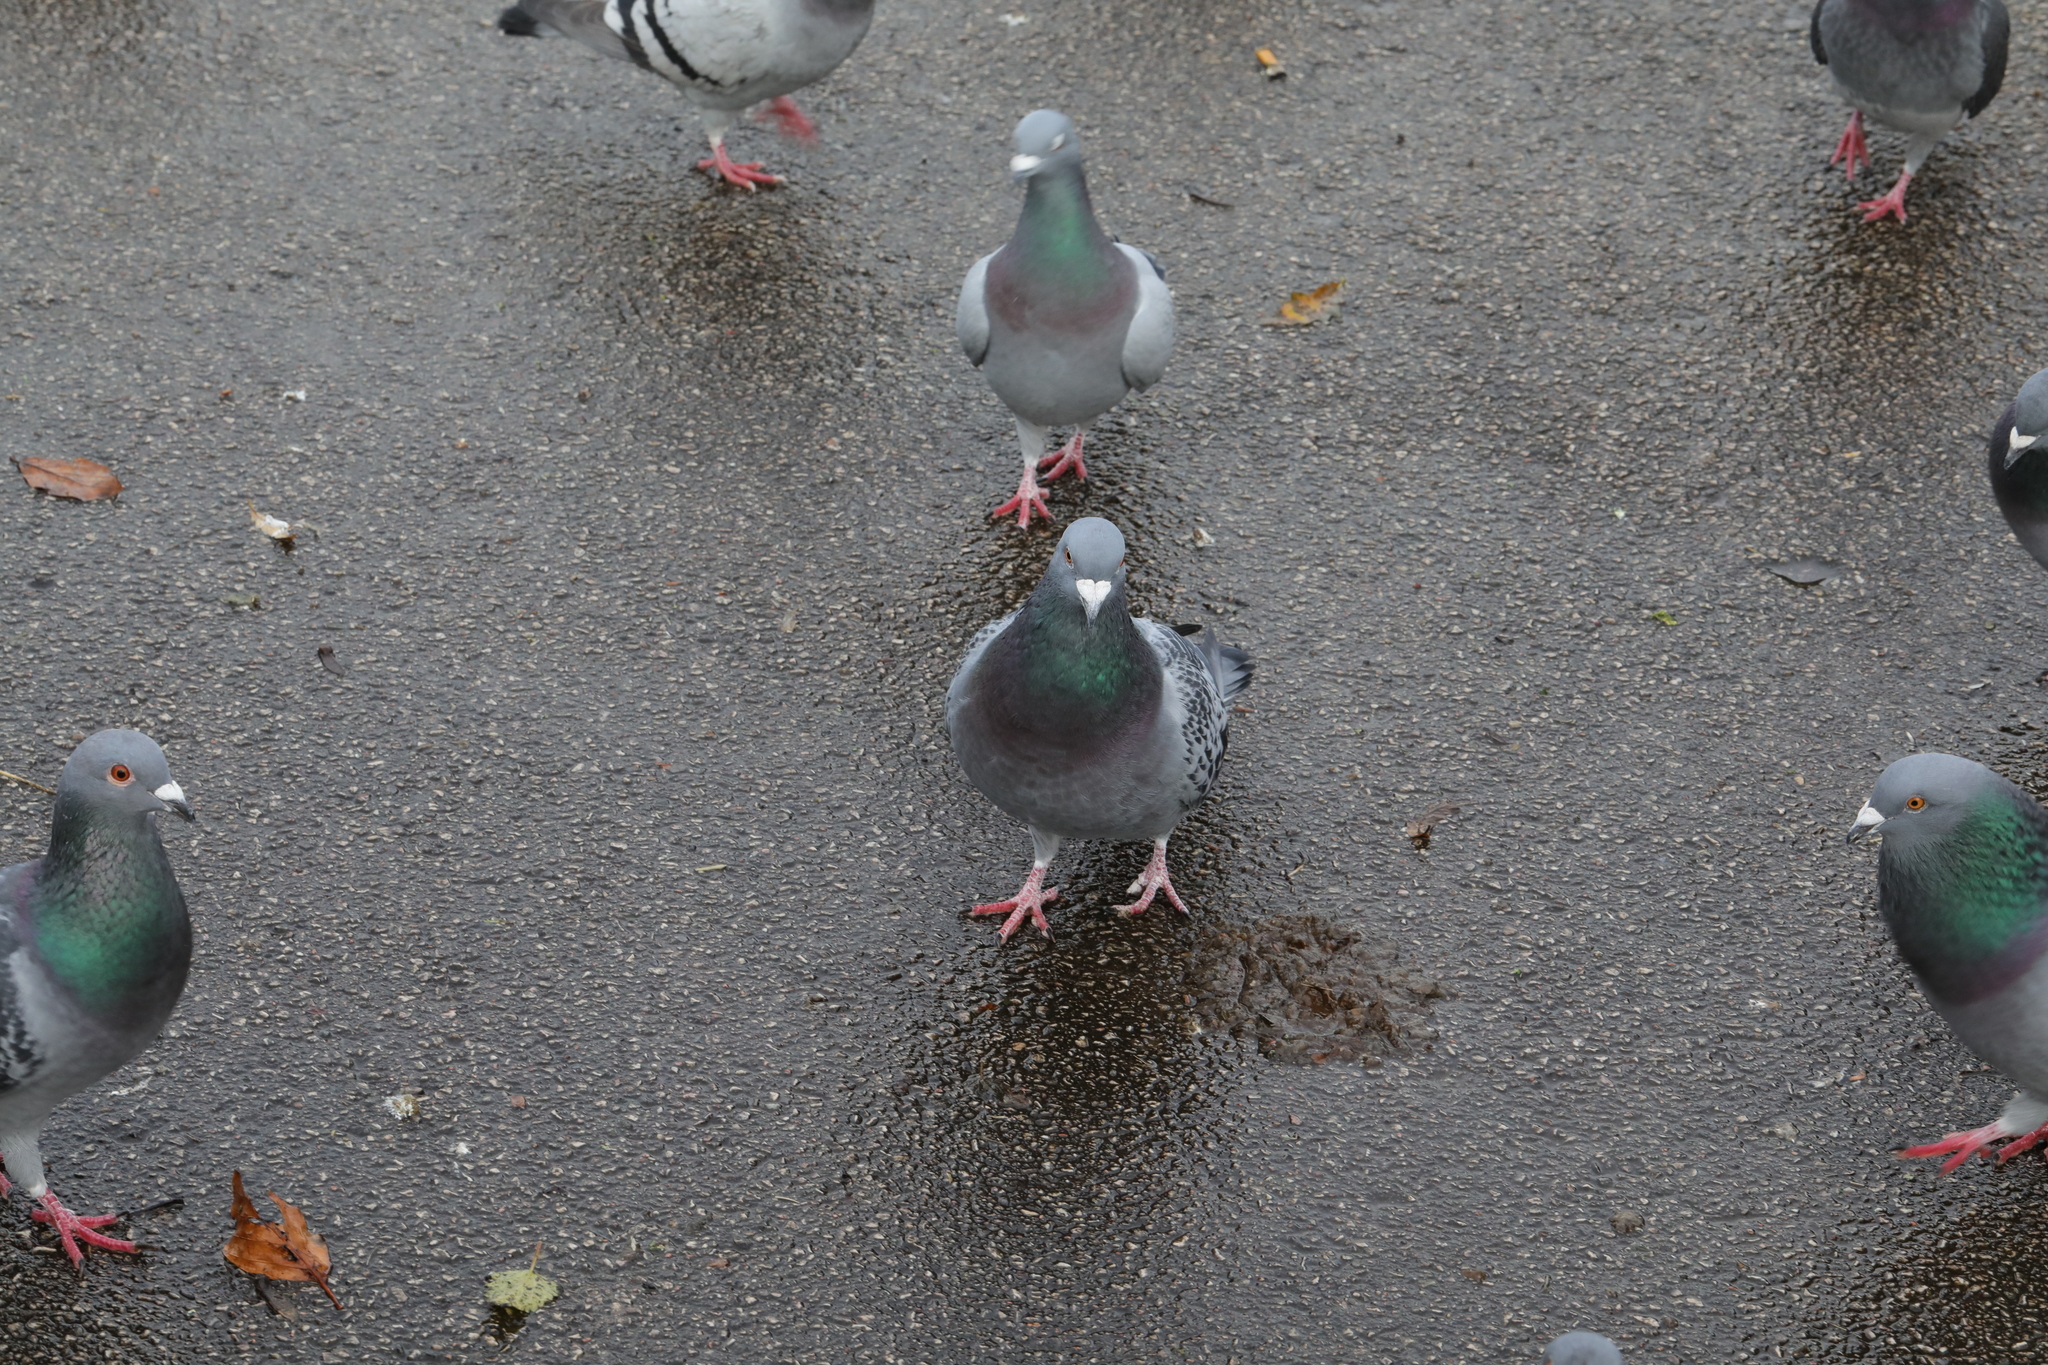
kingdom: Animalia
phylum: Chordata
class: Aves
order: Columbiformes
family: Columbidae
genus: Columba
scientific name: Columba livia
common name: Rock pigeon
